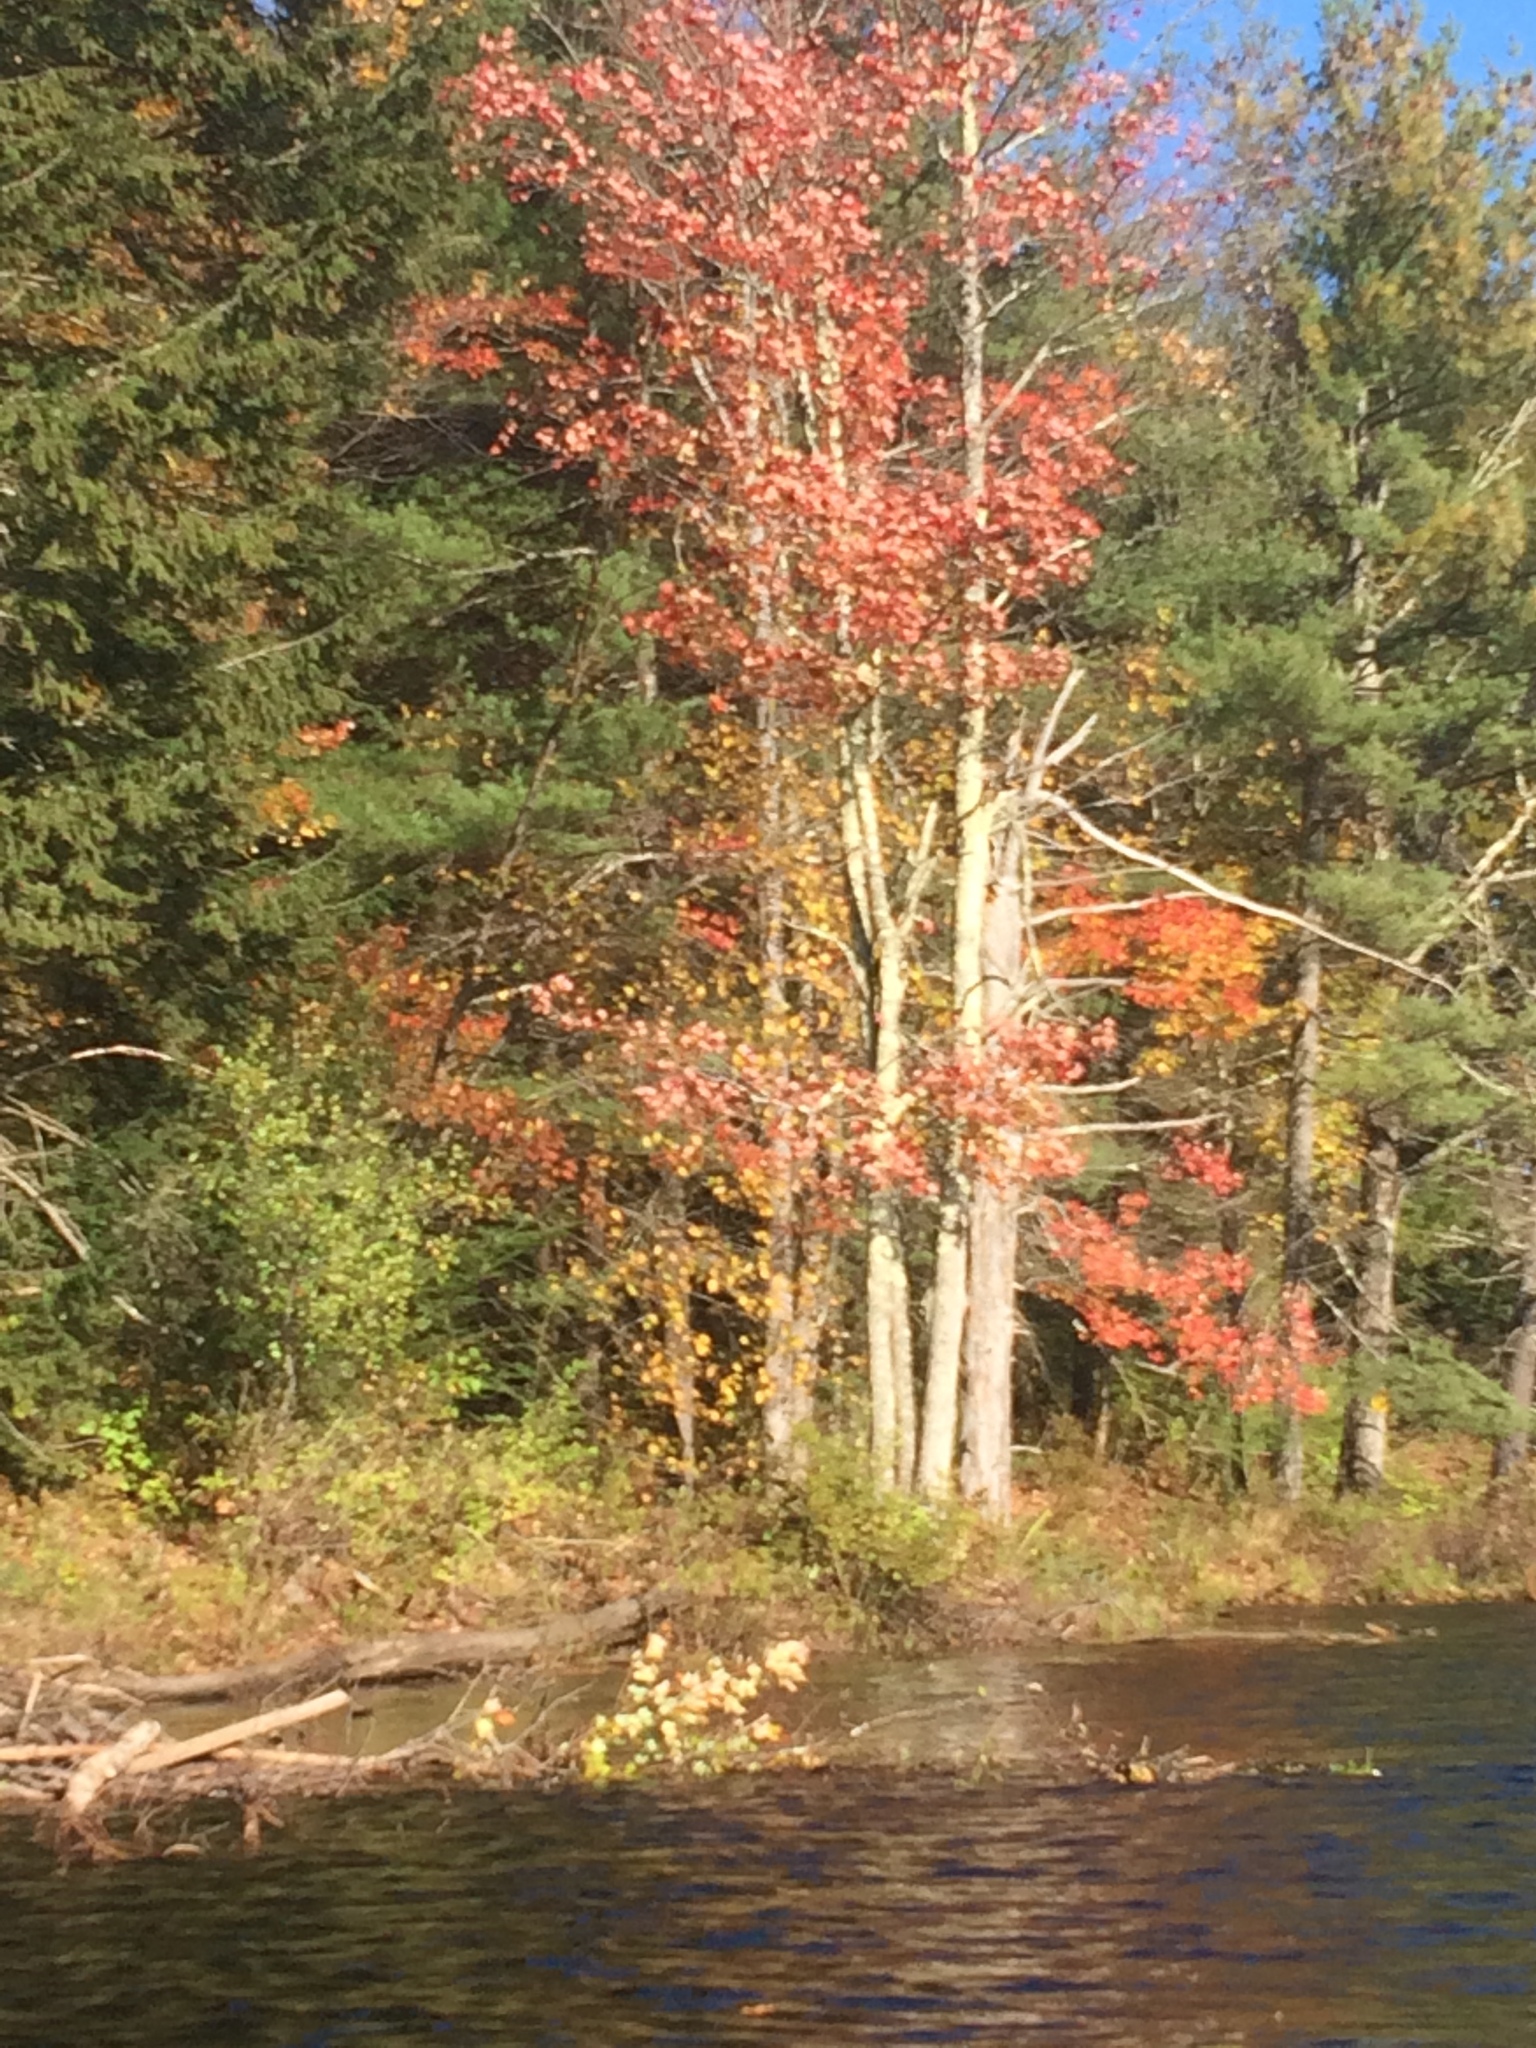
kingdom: Plantae
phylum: Tracheophyta
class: Magnoliopsida
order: Sapindales
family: Sapindaceae
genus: Acer
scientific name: Acer rubrum
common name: Red maple
